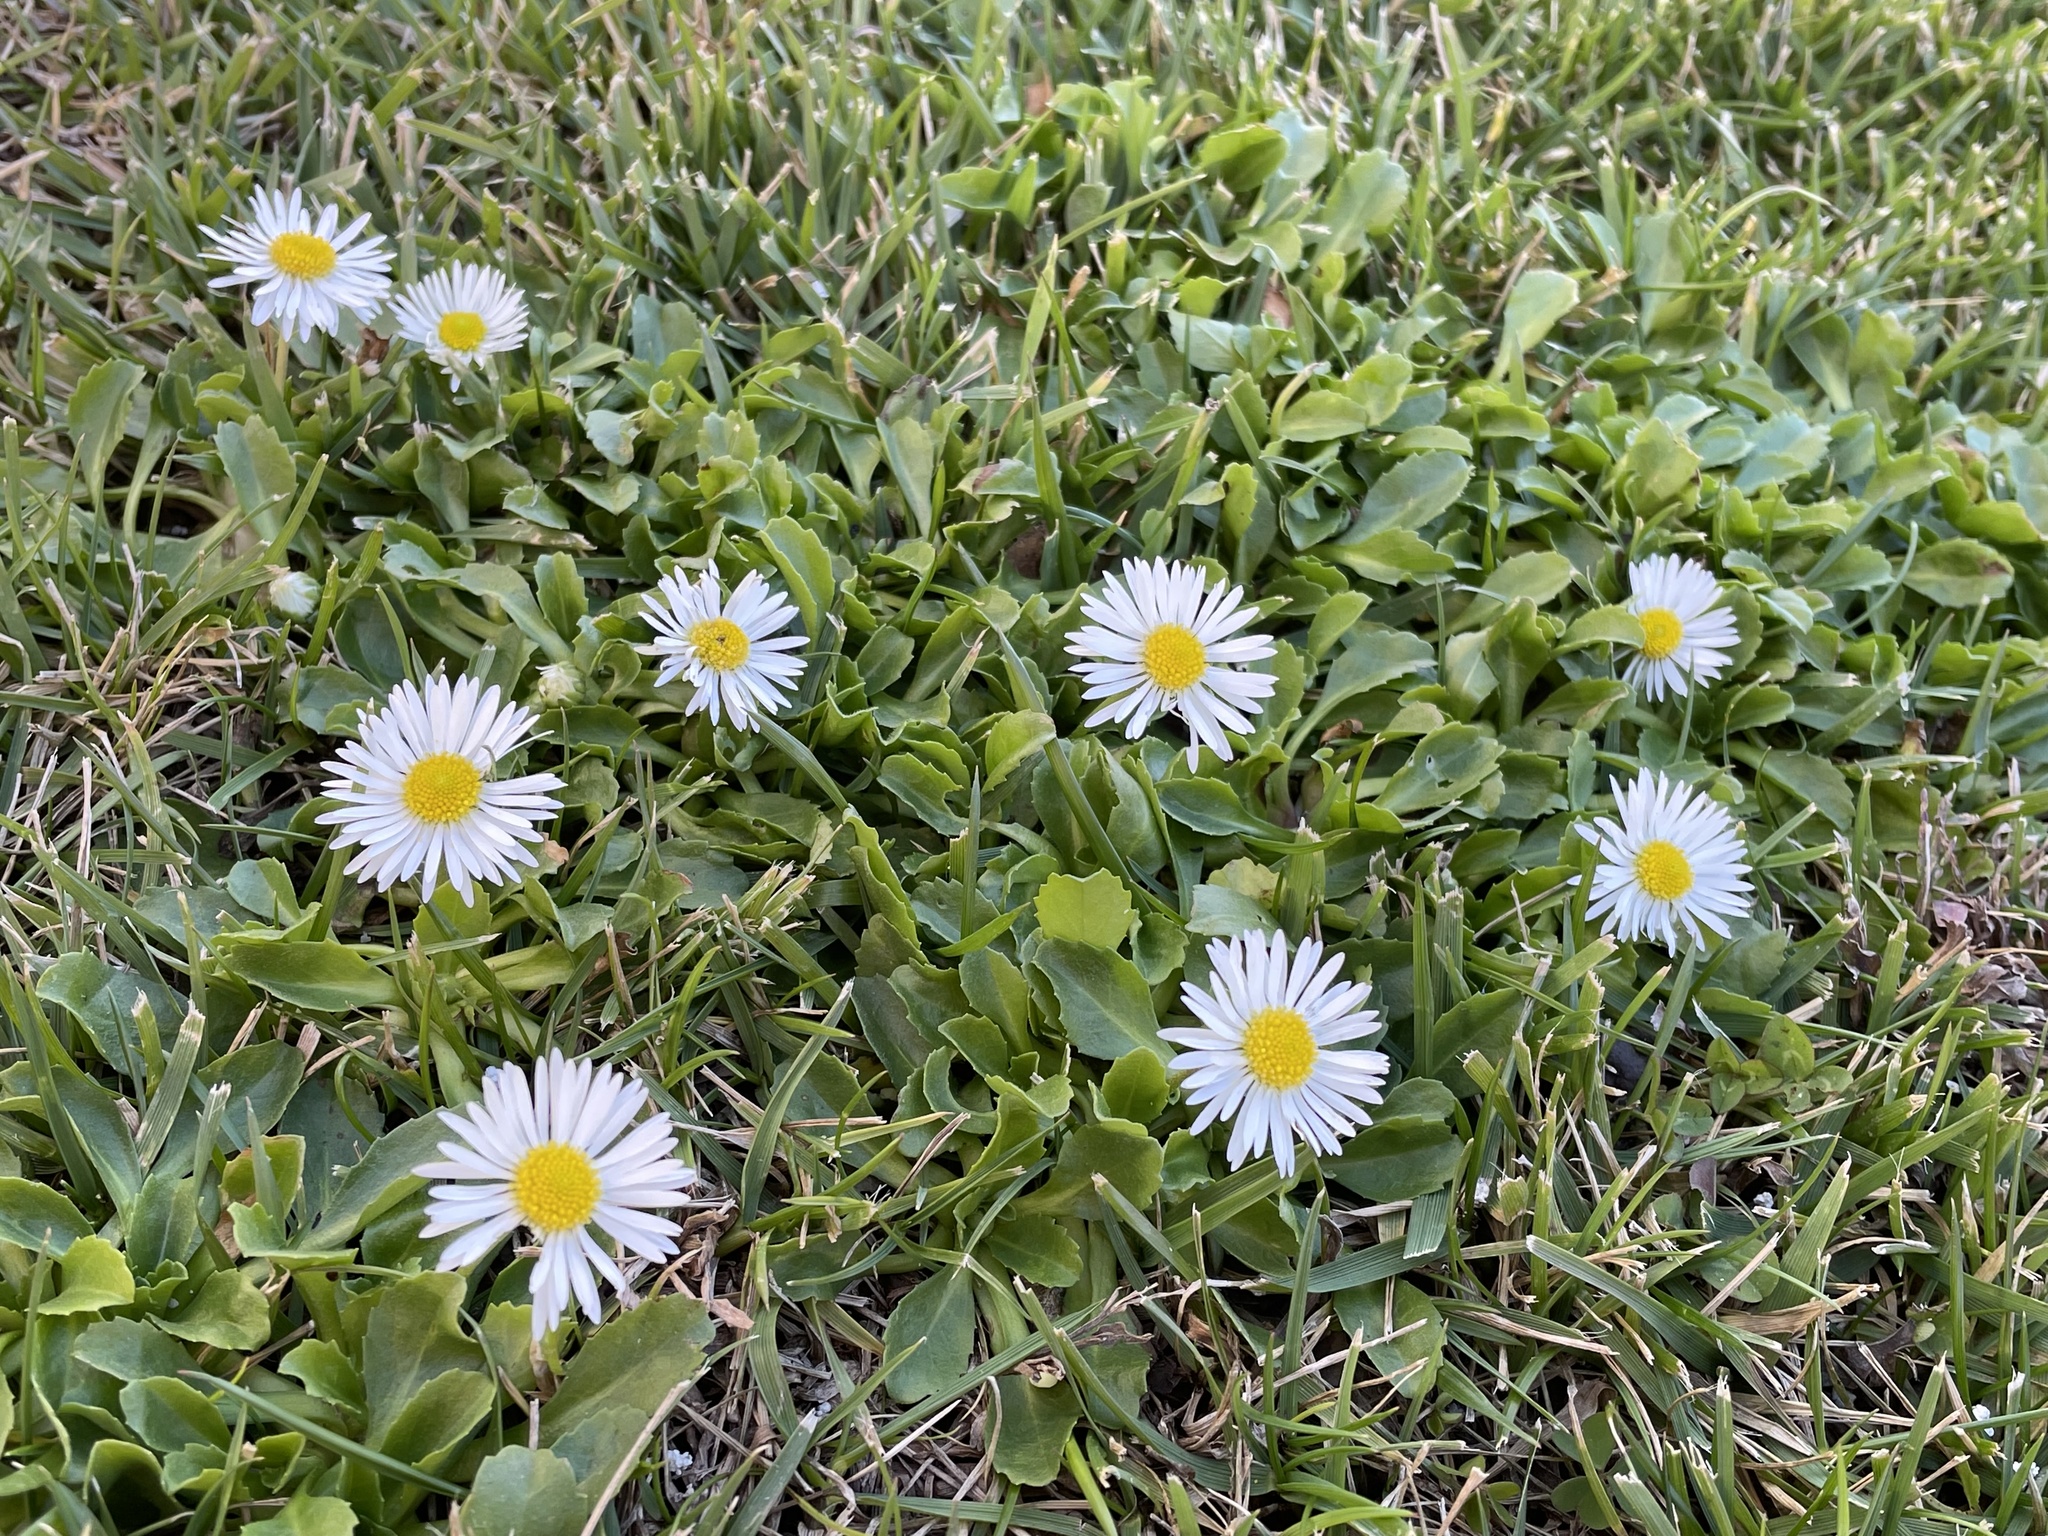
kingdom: Plantae
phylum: Tracheophyta
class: Magnoliopsida
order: Asterales
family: Asteraceae
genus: Bellis
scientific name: Bellis perennis
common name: Lawndaisy
